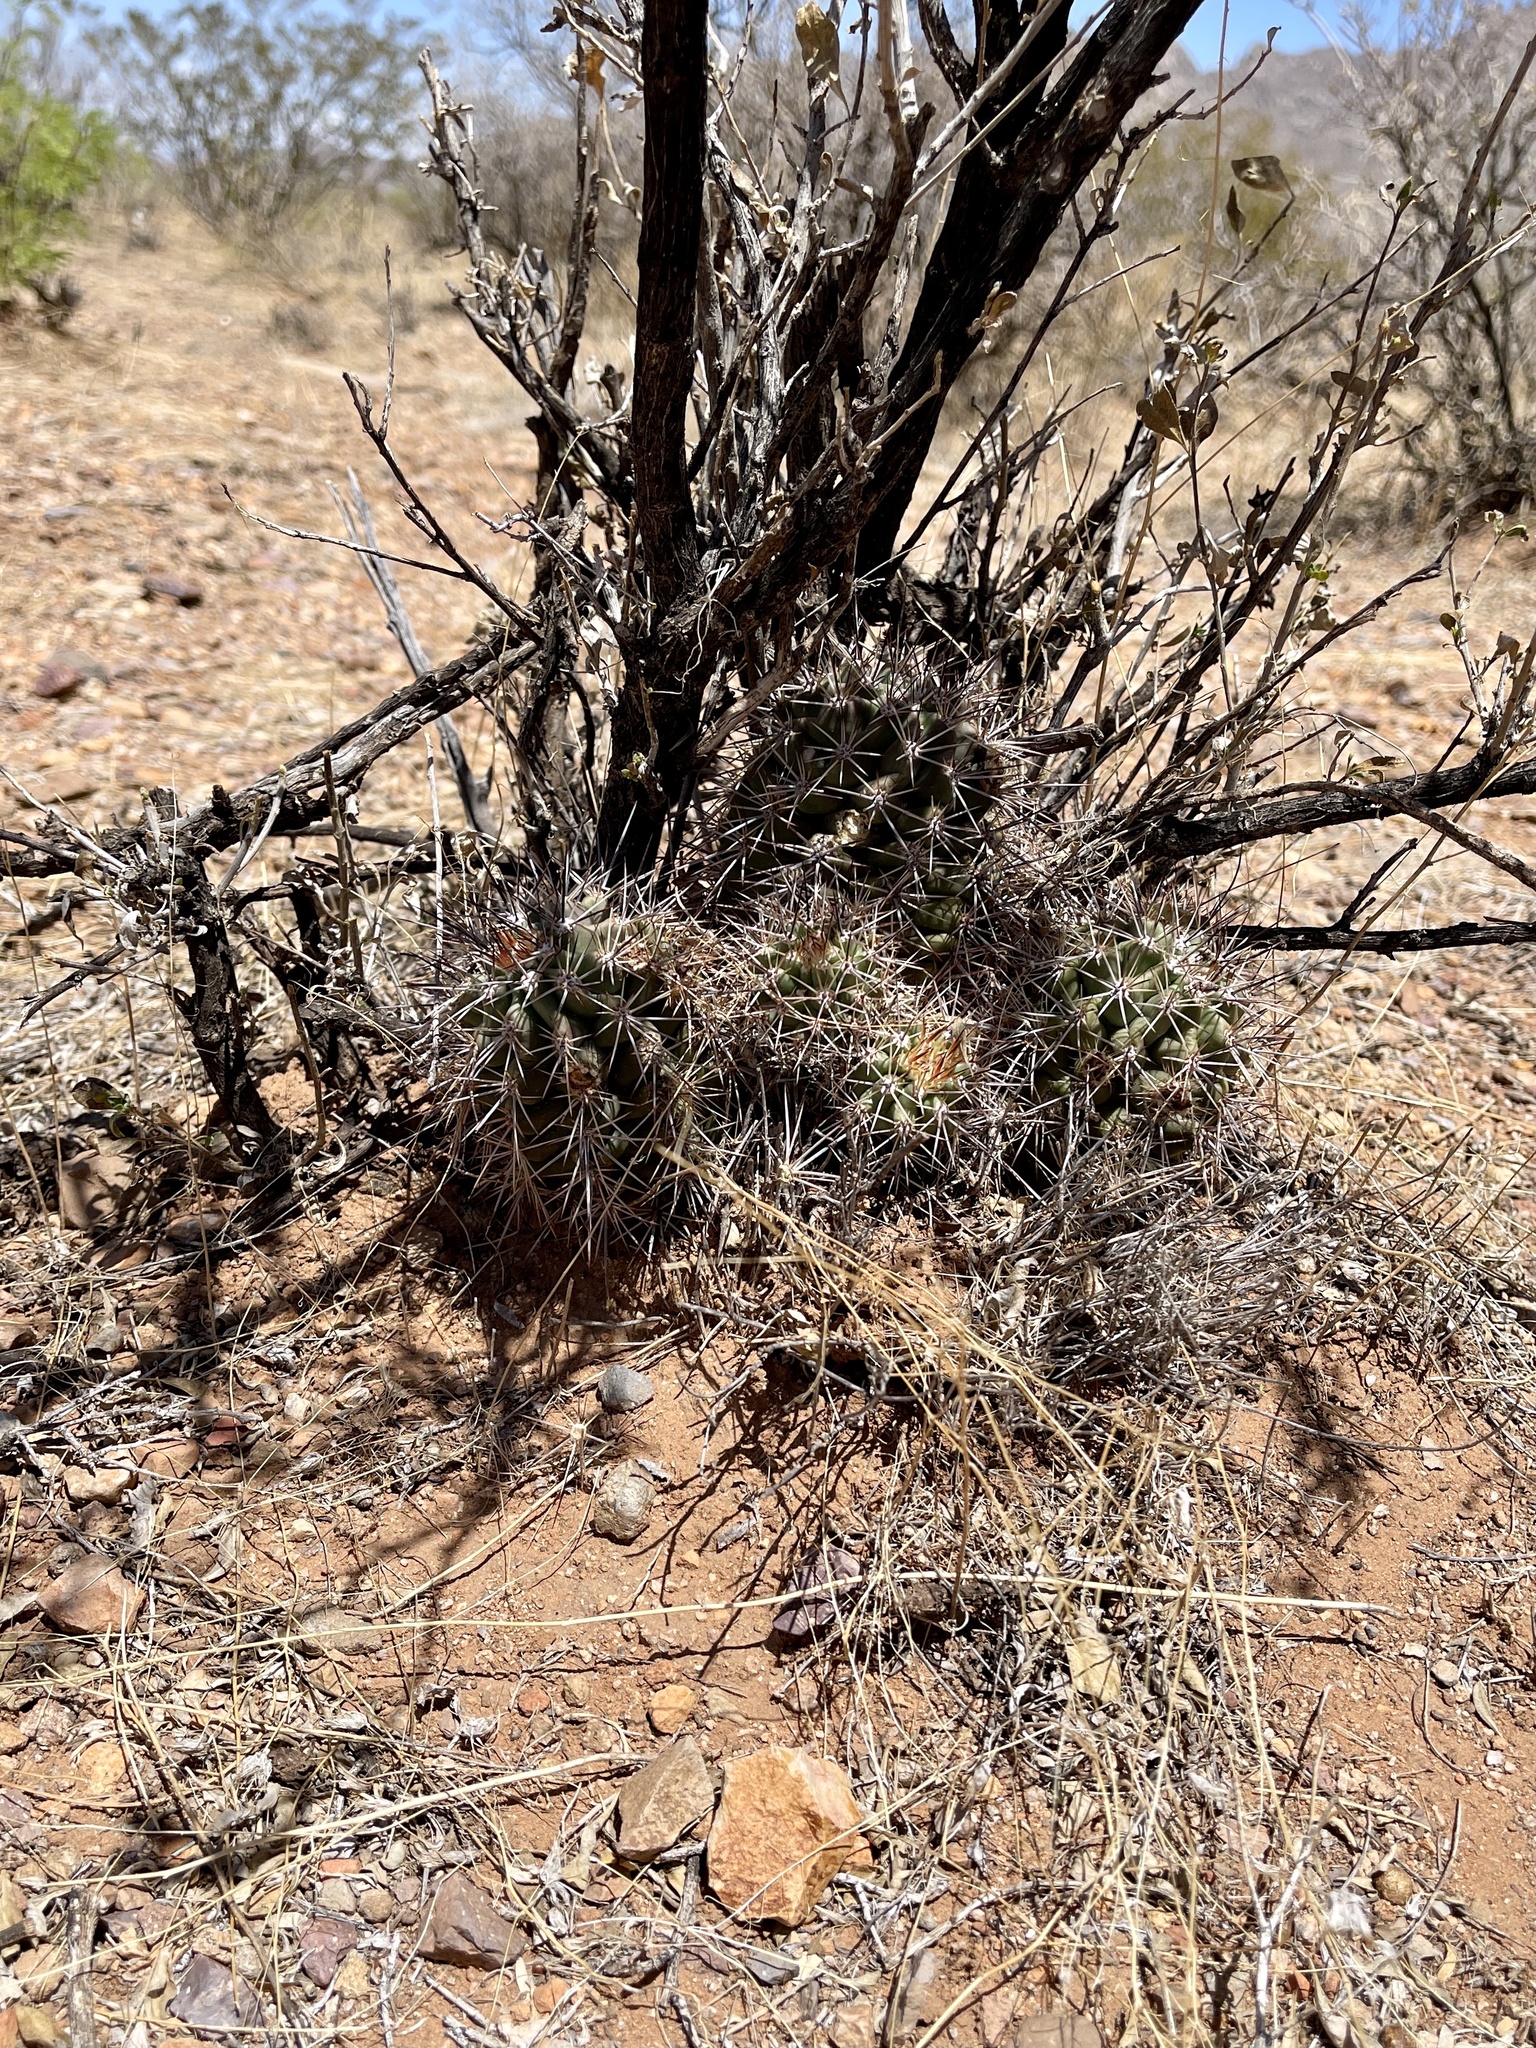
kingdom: Plantae
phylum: Tracheophyta
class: Magnoliopsida
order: Caryophyllales
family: Cactaceae
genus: Echinocereus
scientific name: Echinocereus coccineus
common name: Scarlet hedgehog cactus
